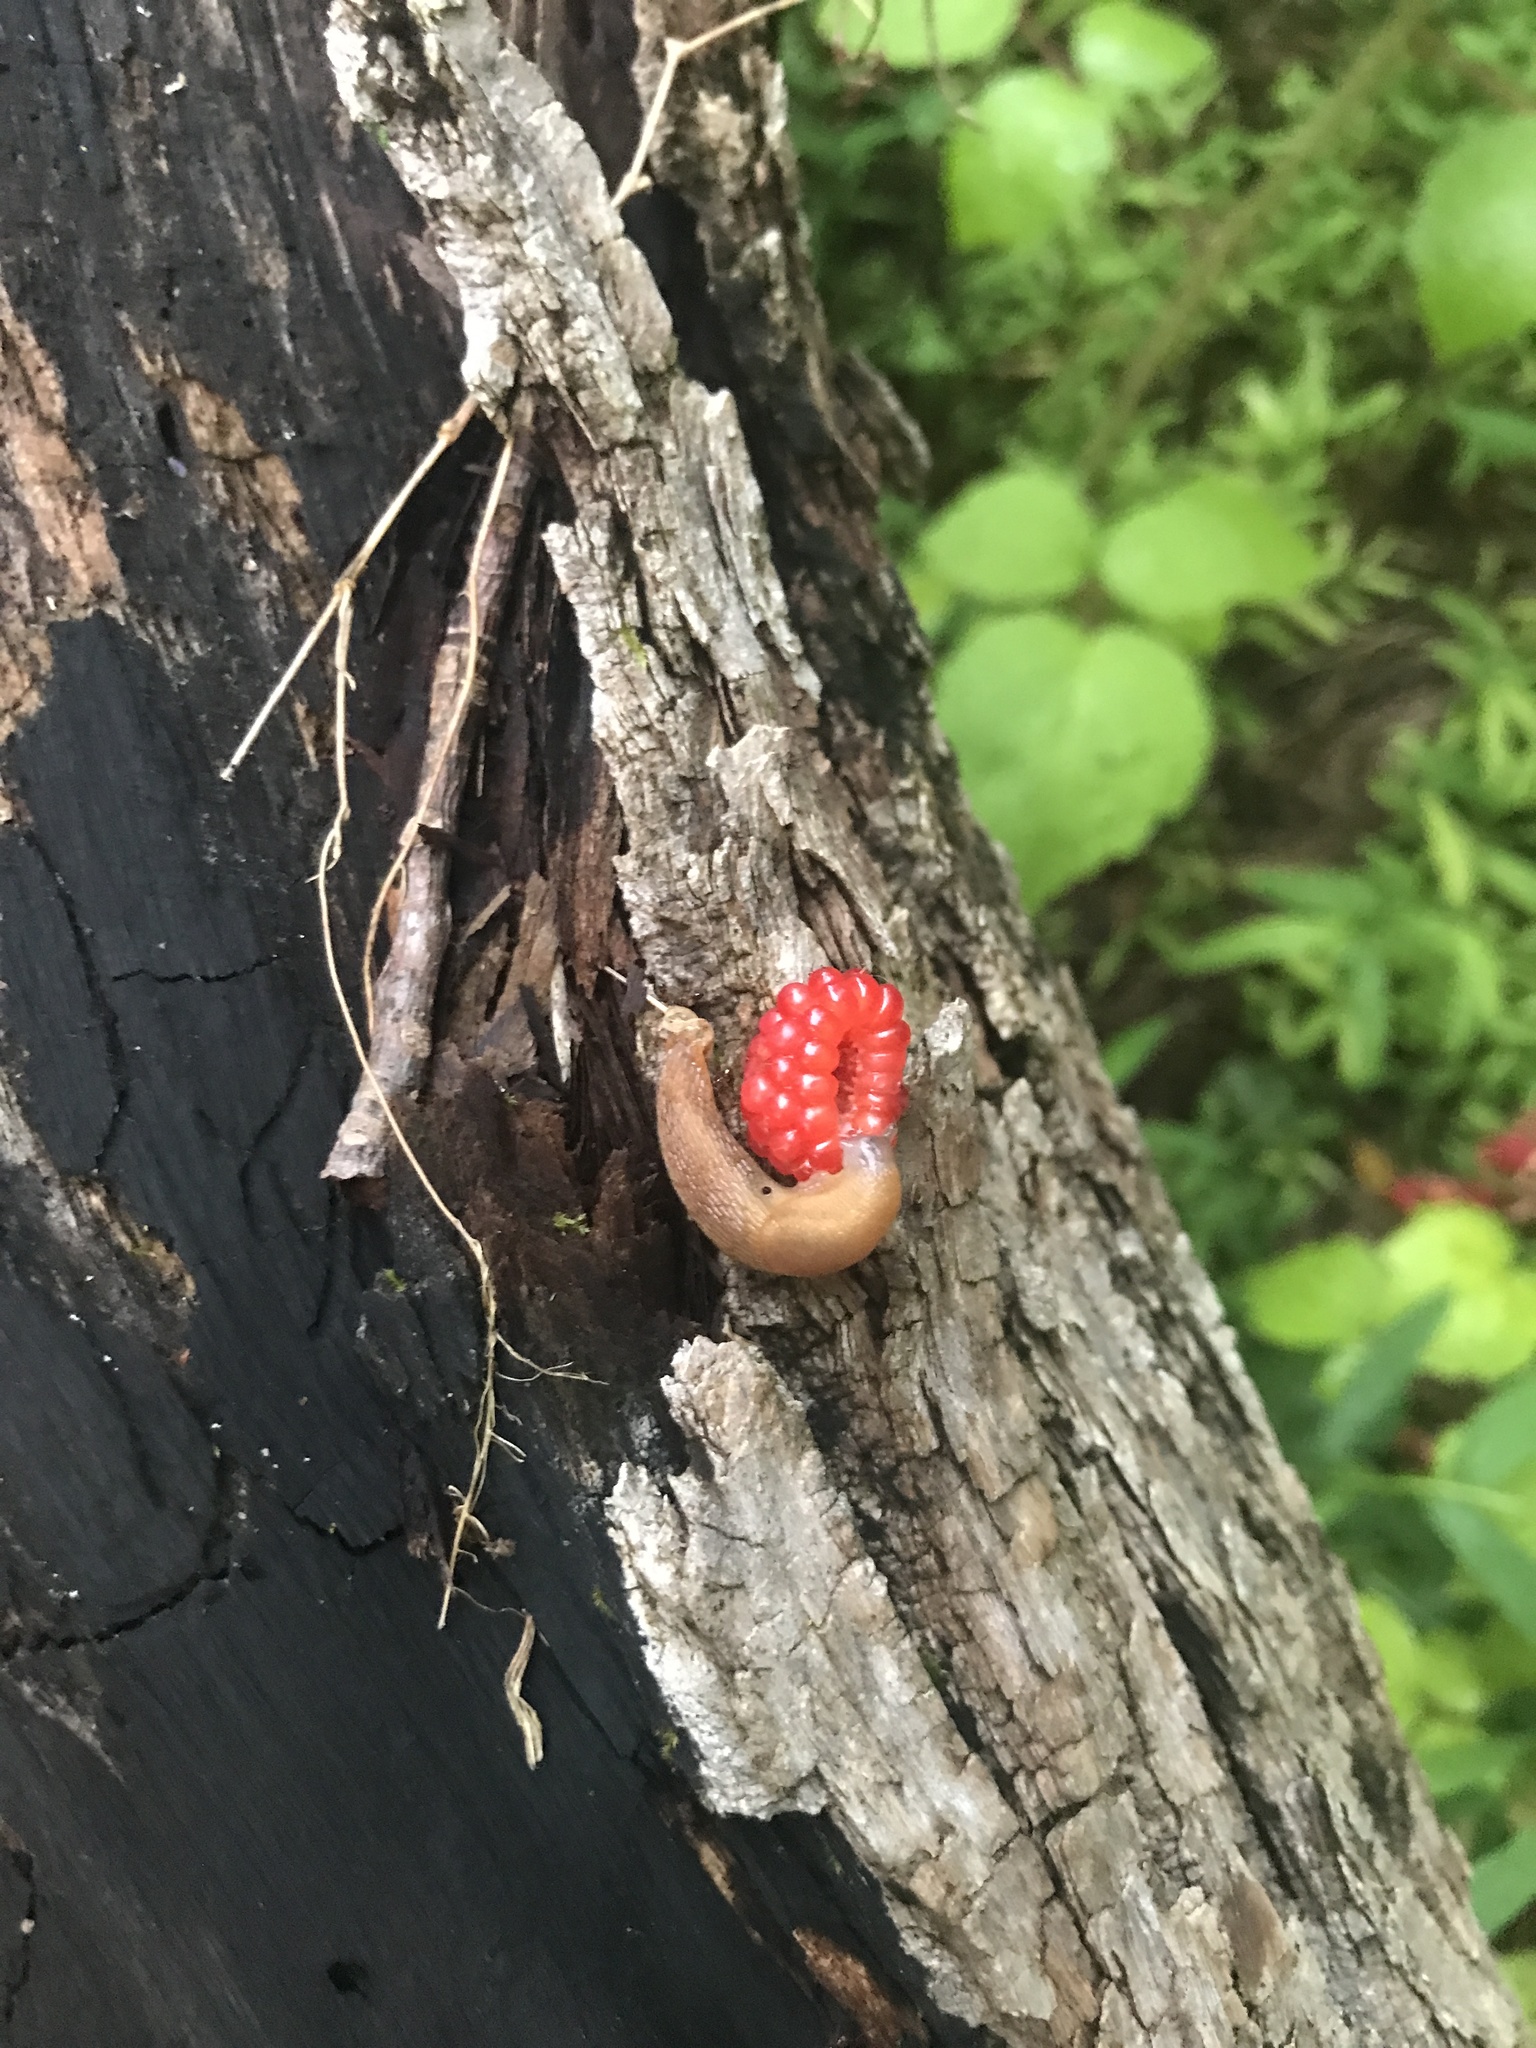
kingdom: Animalia
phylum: Mollusca
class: Gastropoda
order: Stylommatophora
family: Arionidae
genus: Mesarion
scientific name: Mesarion
